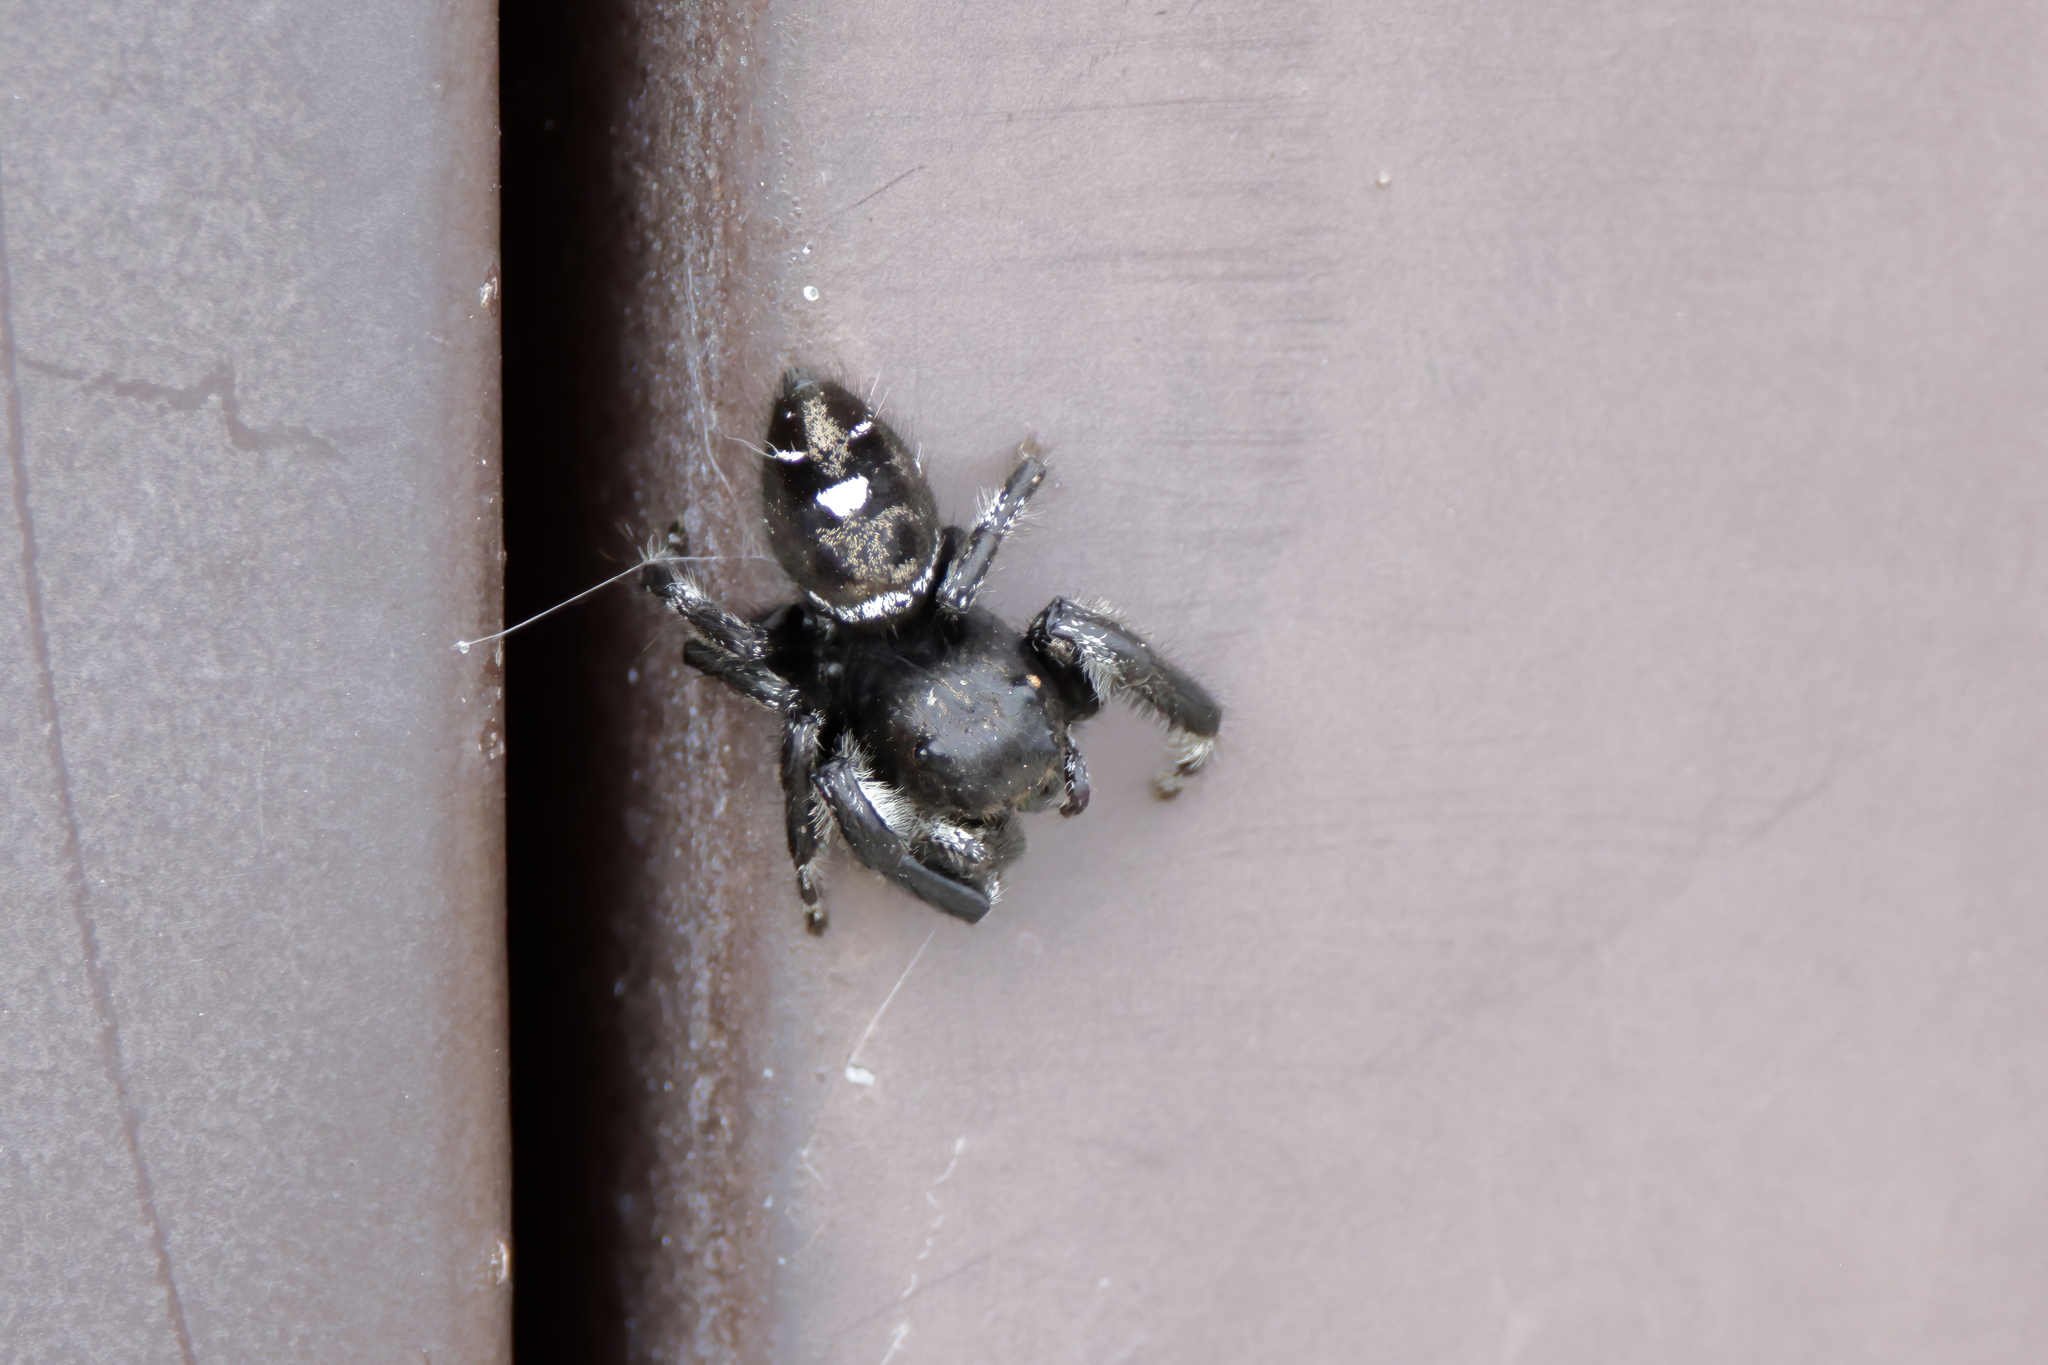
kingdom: Animalia
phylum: Arthropoda
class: Arachnida
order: Araneae
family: Salticidae
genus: Phidippus
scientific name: Phidippus audax
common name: Bold jumper
